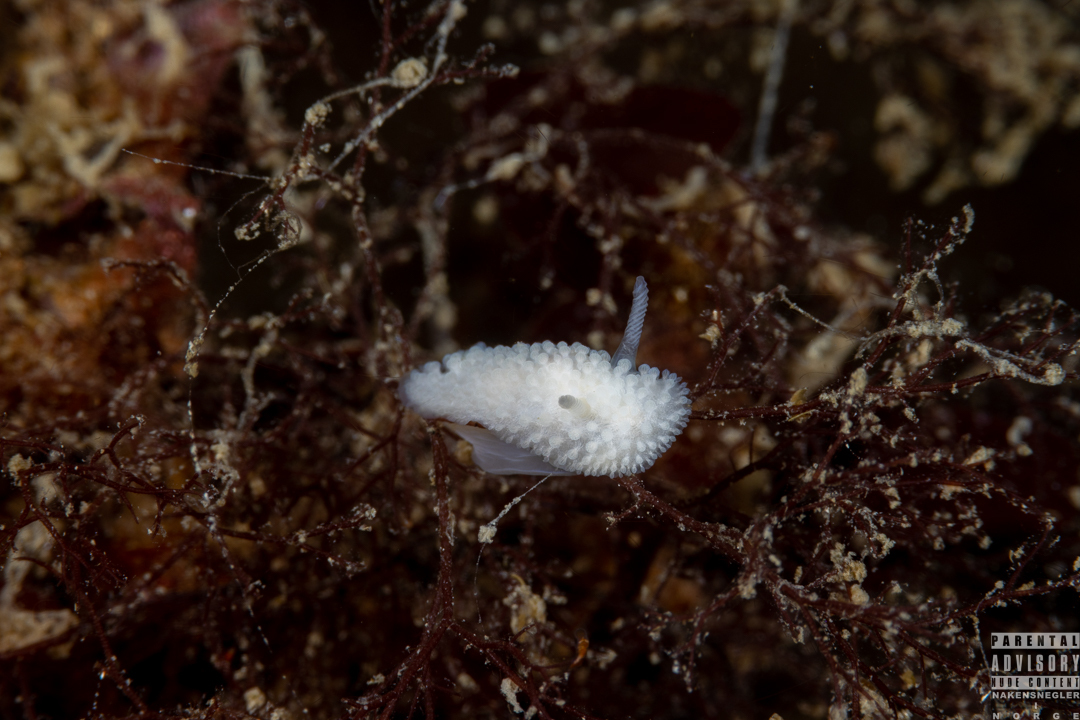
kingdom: Animalia
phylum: Mollusca
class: Gastropoda
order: Nudibranchia
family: Onchidorididae
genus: Onchidoris
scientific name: Onchidoris muricata
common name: Rough doris
